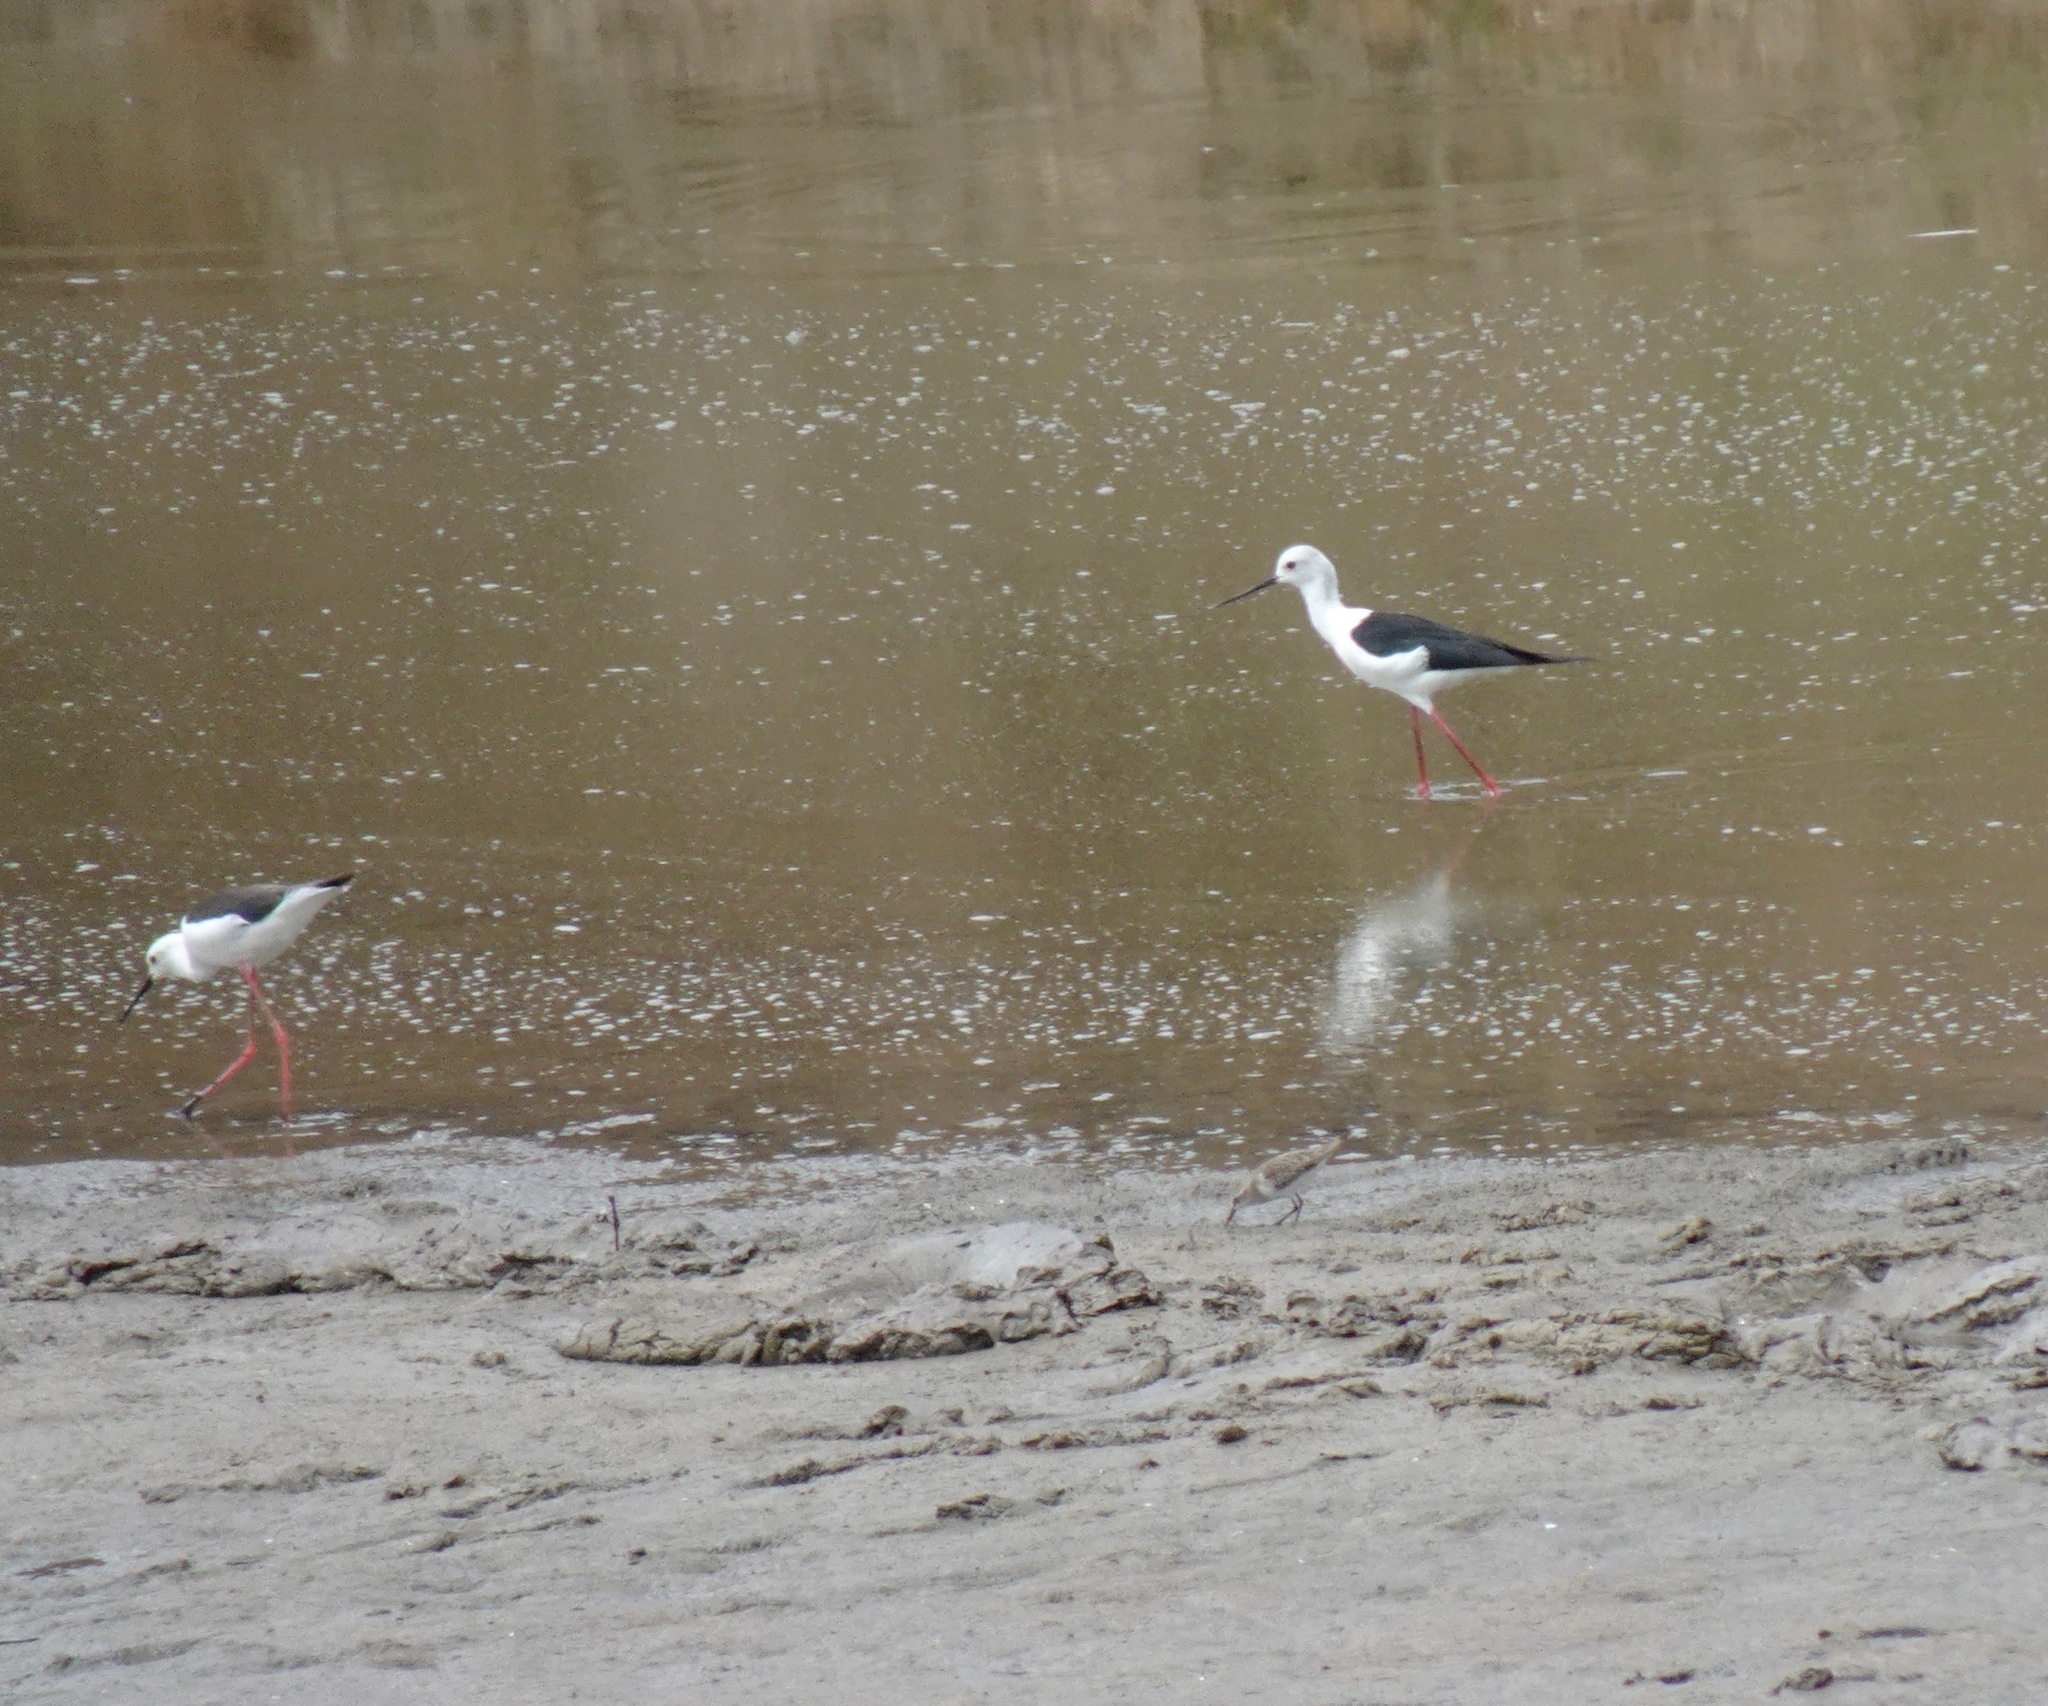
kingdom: Animalia
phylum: Chordata
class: Aves
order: Charadriiformes
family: Recurvirostridae
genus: Himantopus
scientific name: Himantopus himantopus
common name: Black-winged stilt
